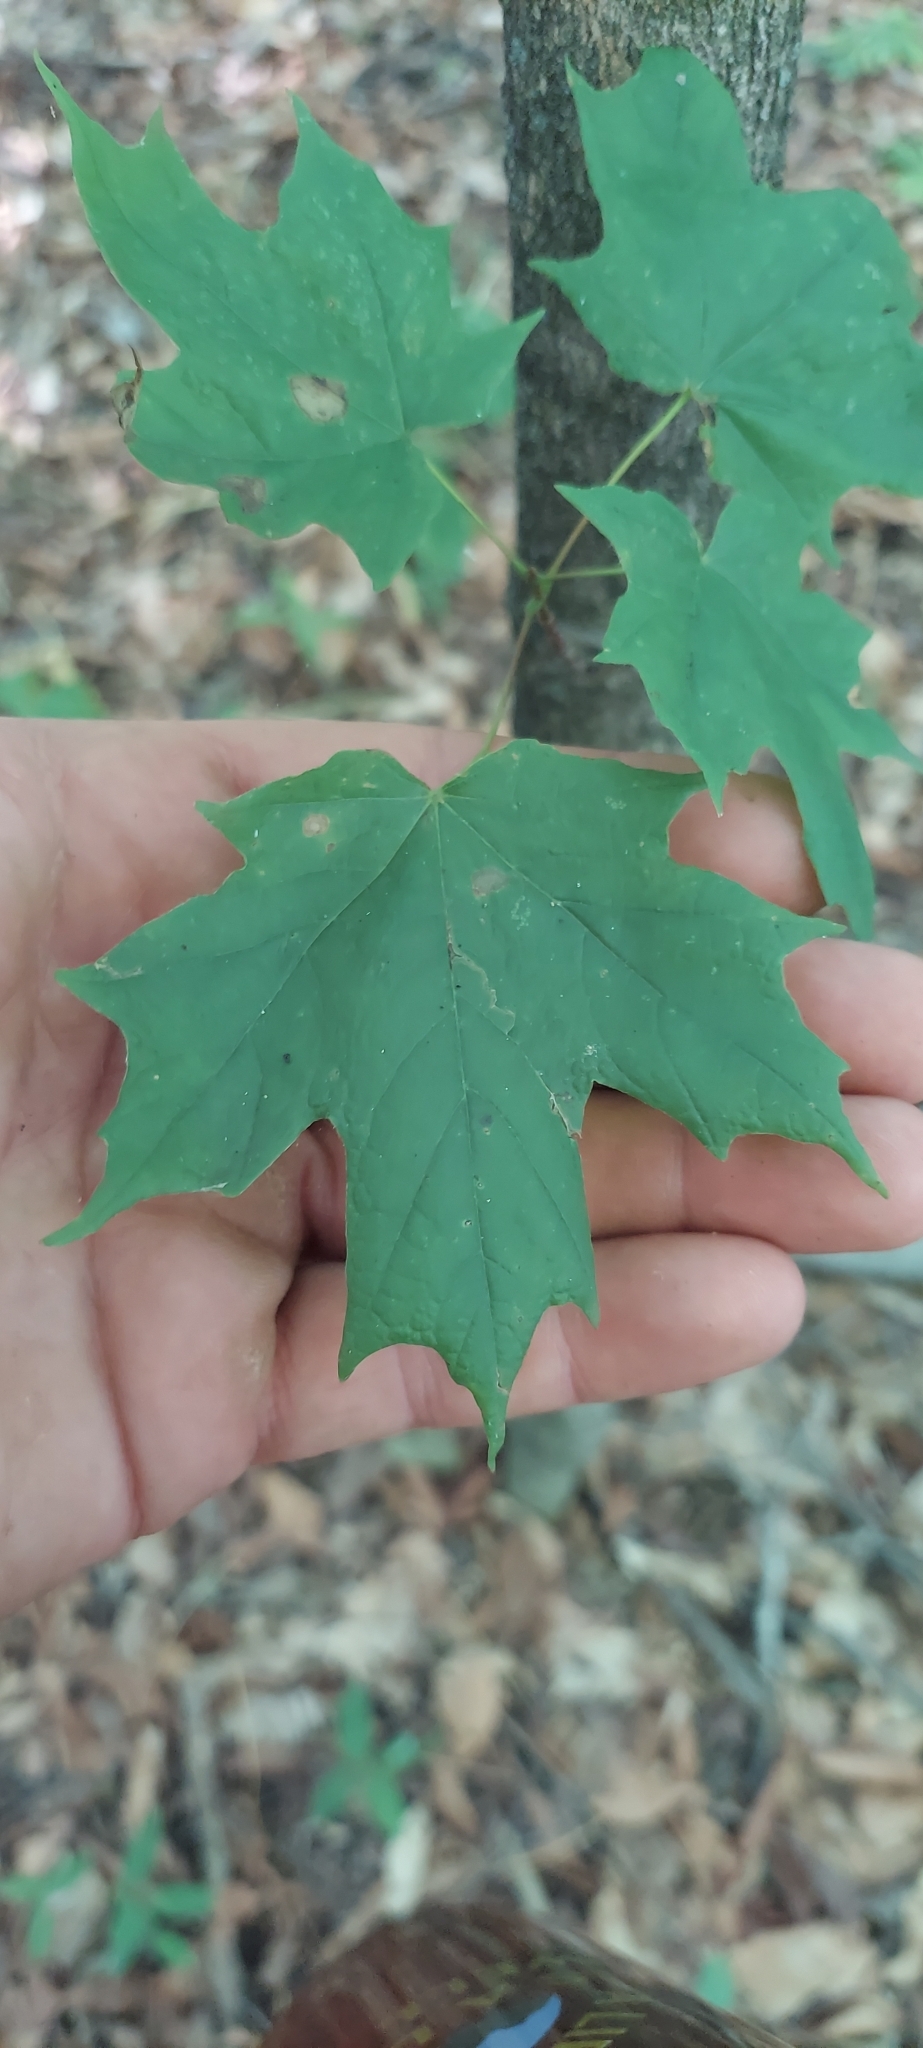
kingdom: Plantae
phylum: Tracheophyta
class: Magnoliopsida
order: Sapindales
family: Sapindaceae
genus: Acer
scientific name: Acer saccharum
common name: Sugar maple
